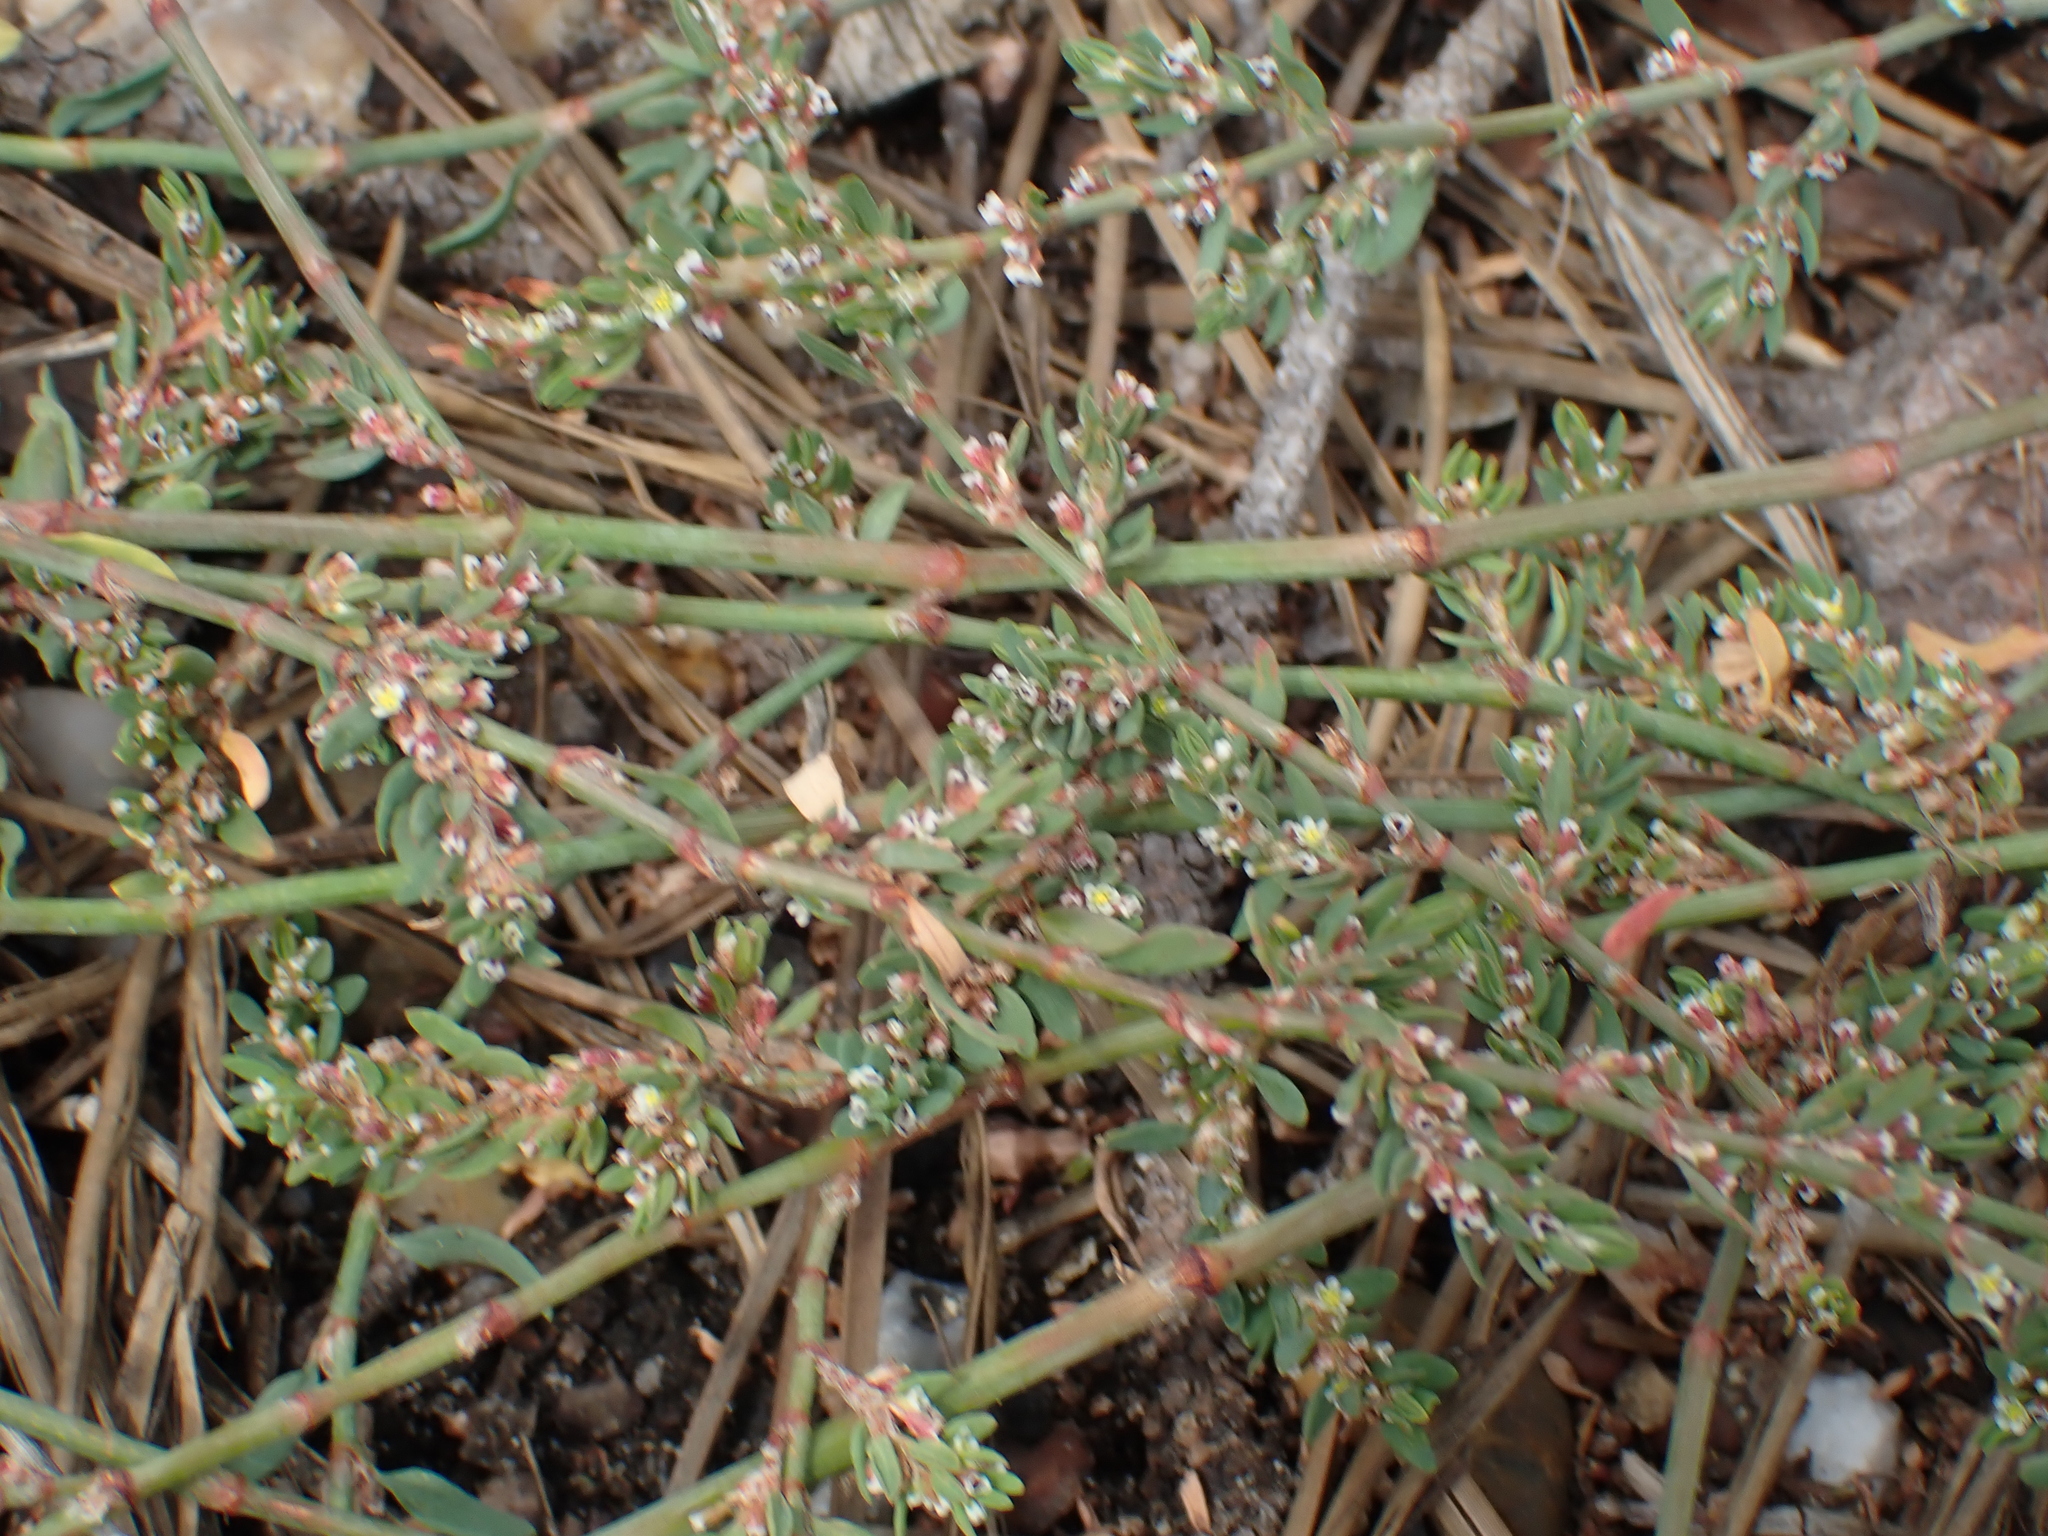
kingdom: Plantae
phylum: Tracheophyta
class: Magnoliopsida
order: Caryophyllales
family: Polygonaceae
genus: Polygonum
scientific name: Polygonum raii
